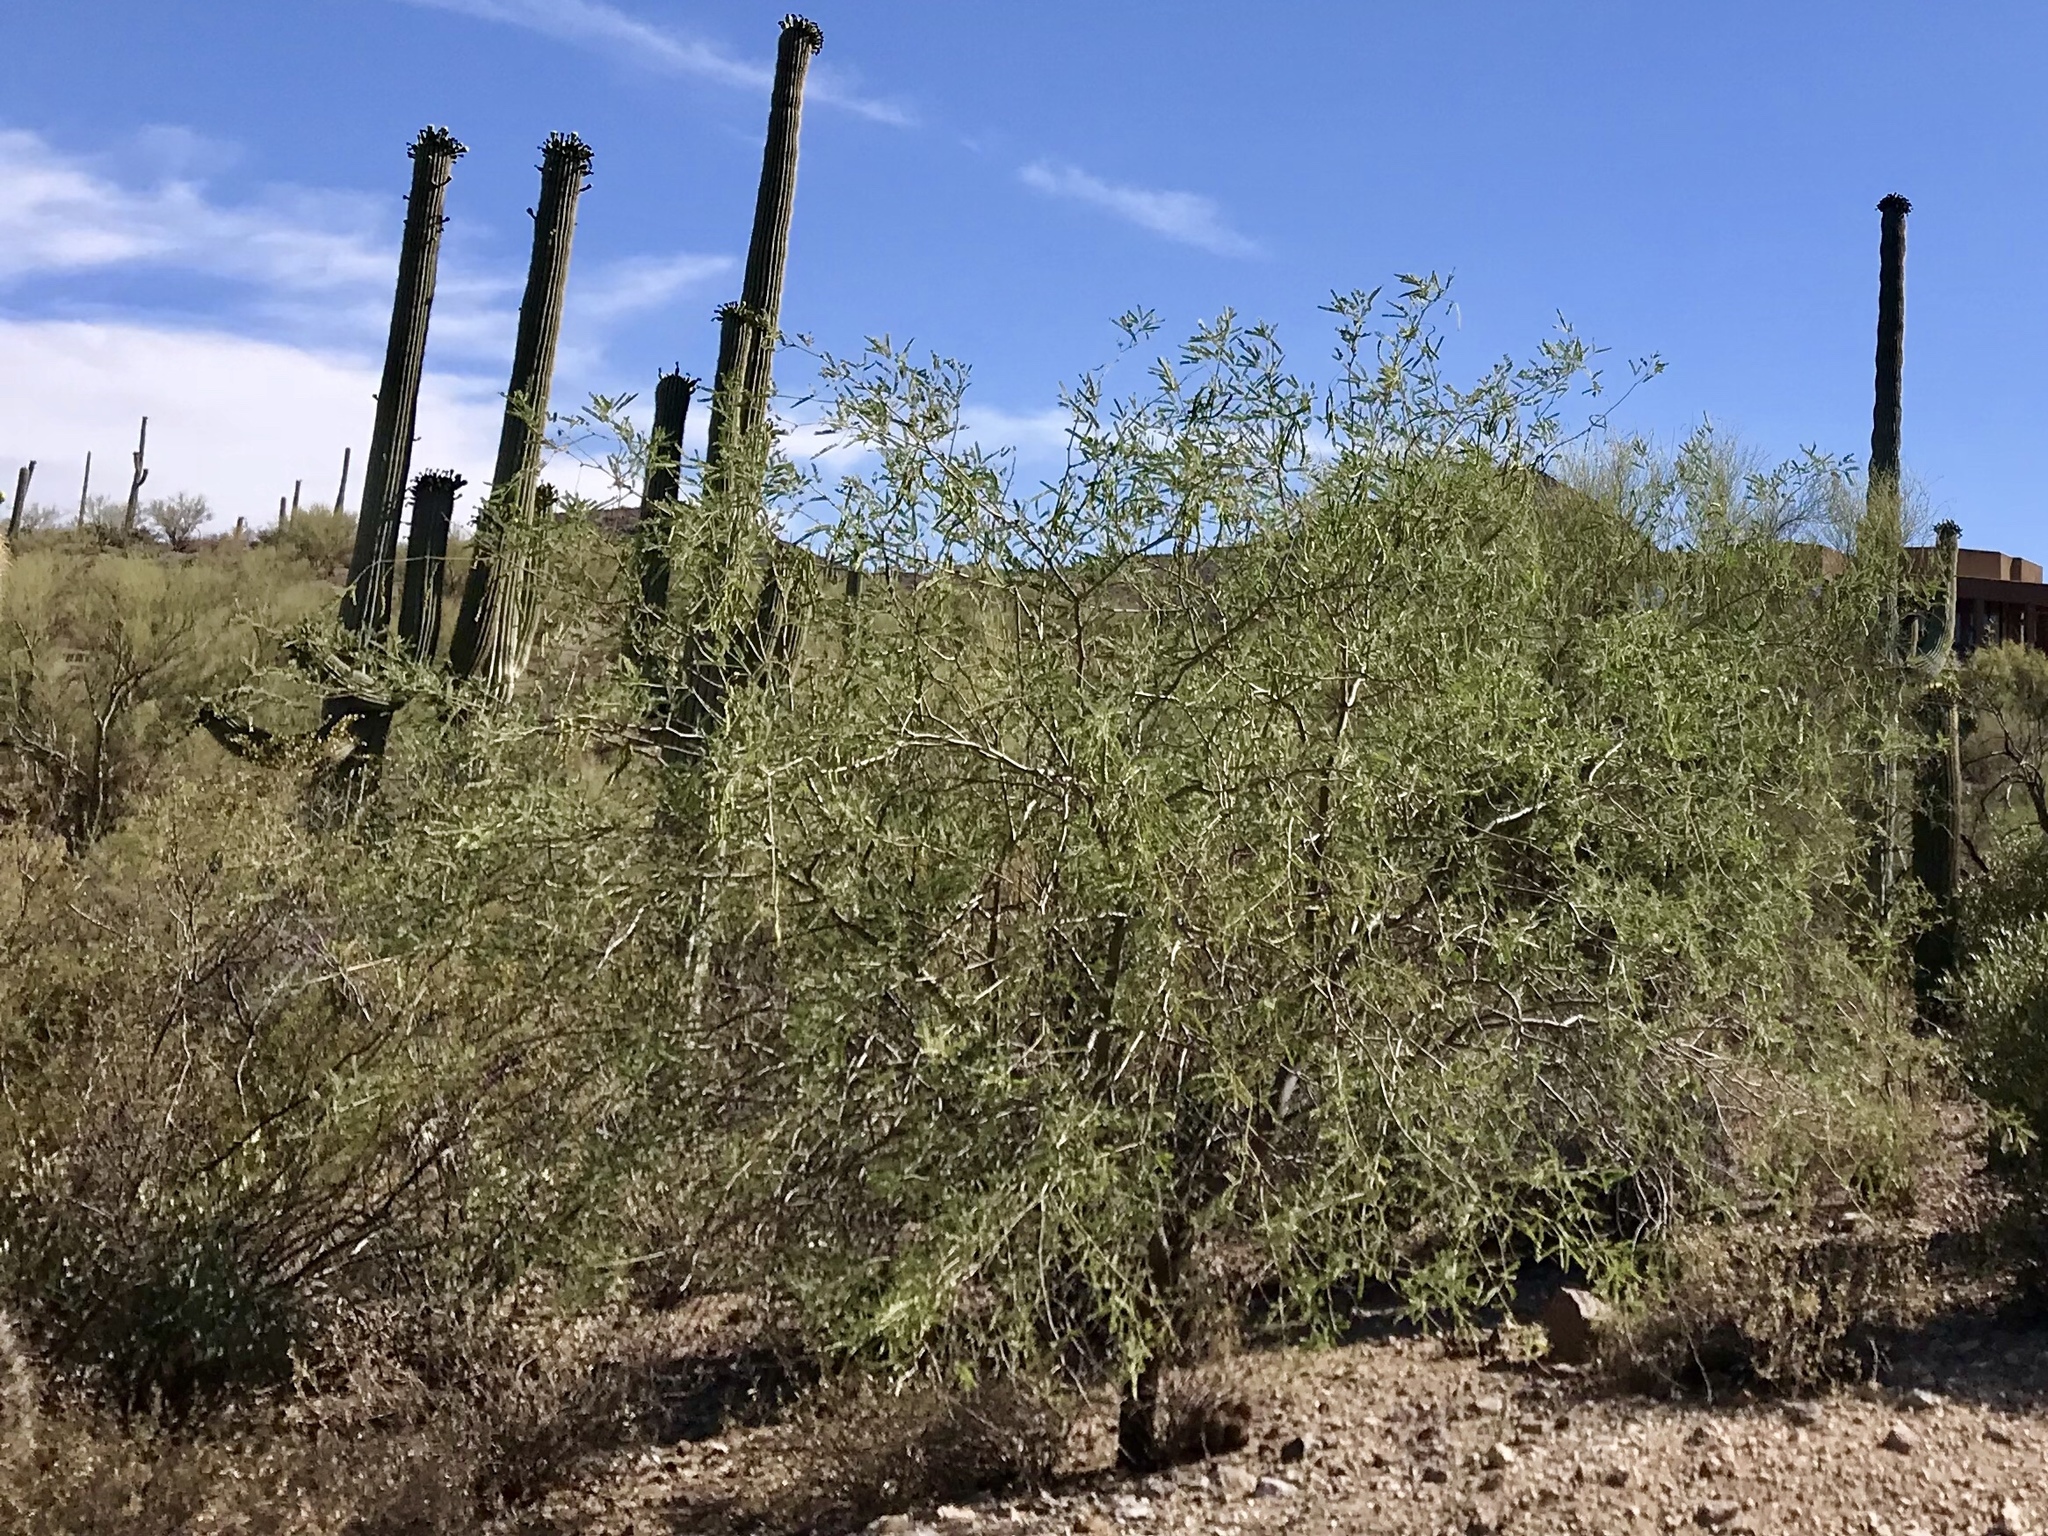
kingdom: Plantae
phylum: Tracheophyta
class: Magnoliopsida
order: Fabales
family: Fabaceae
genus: Prosopis
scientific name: Prosopis velutina
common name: Velvet mesquite
